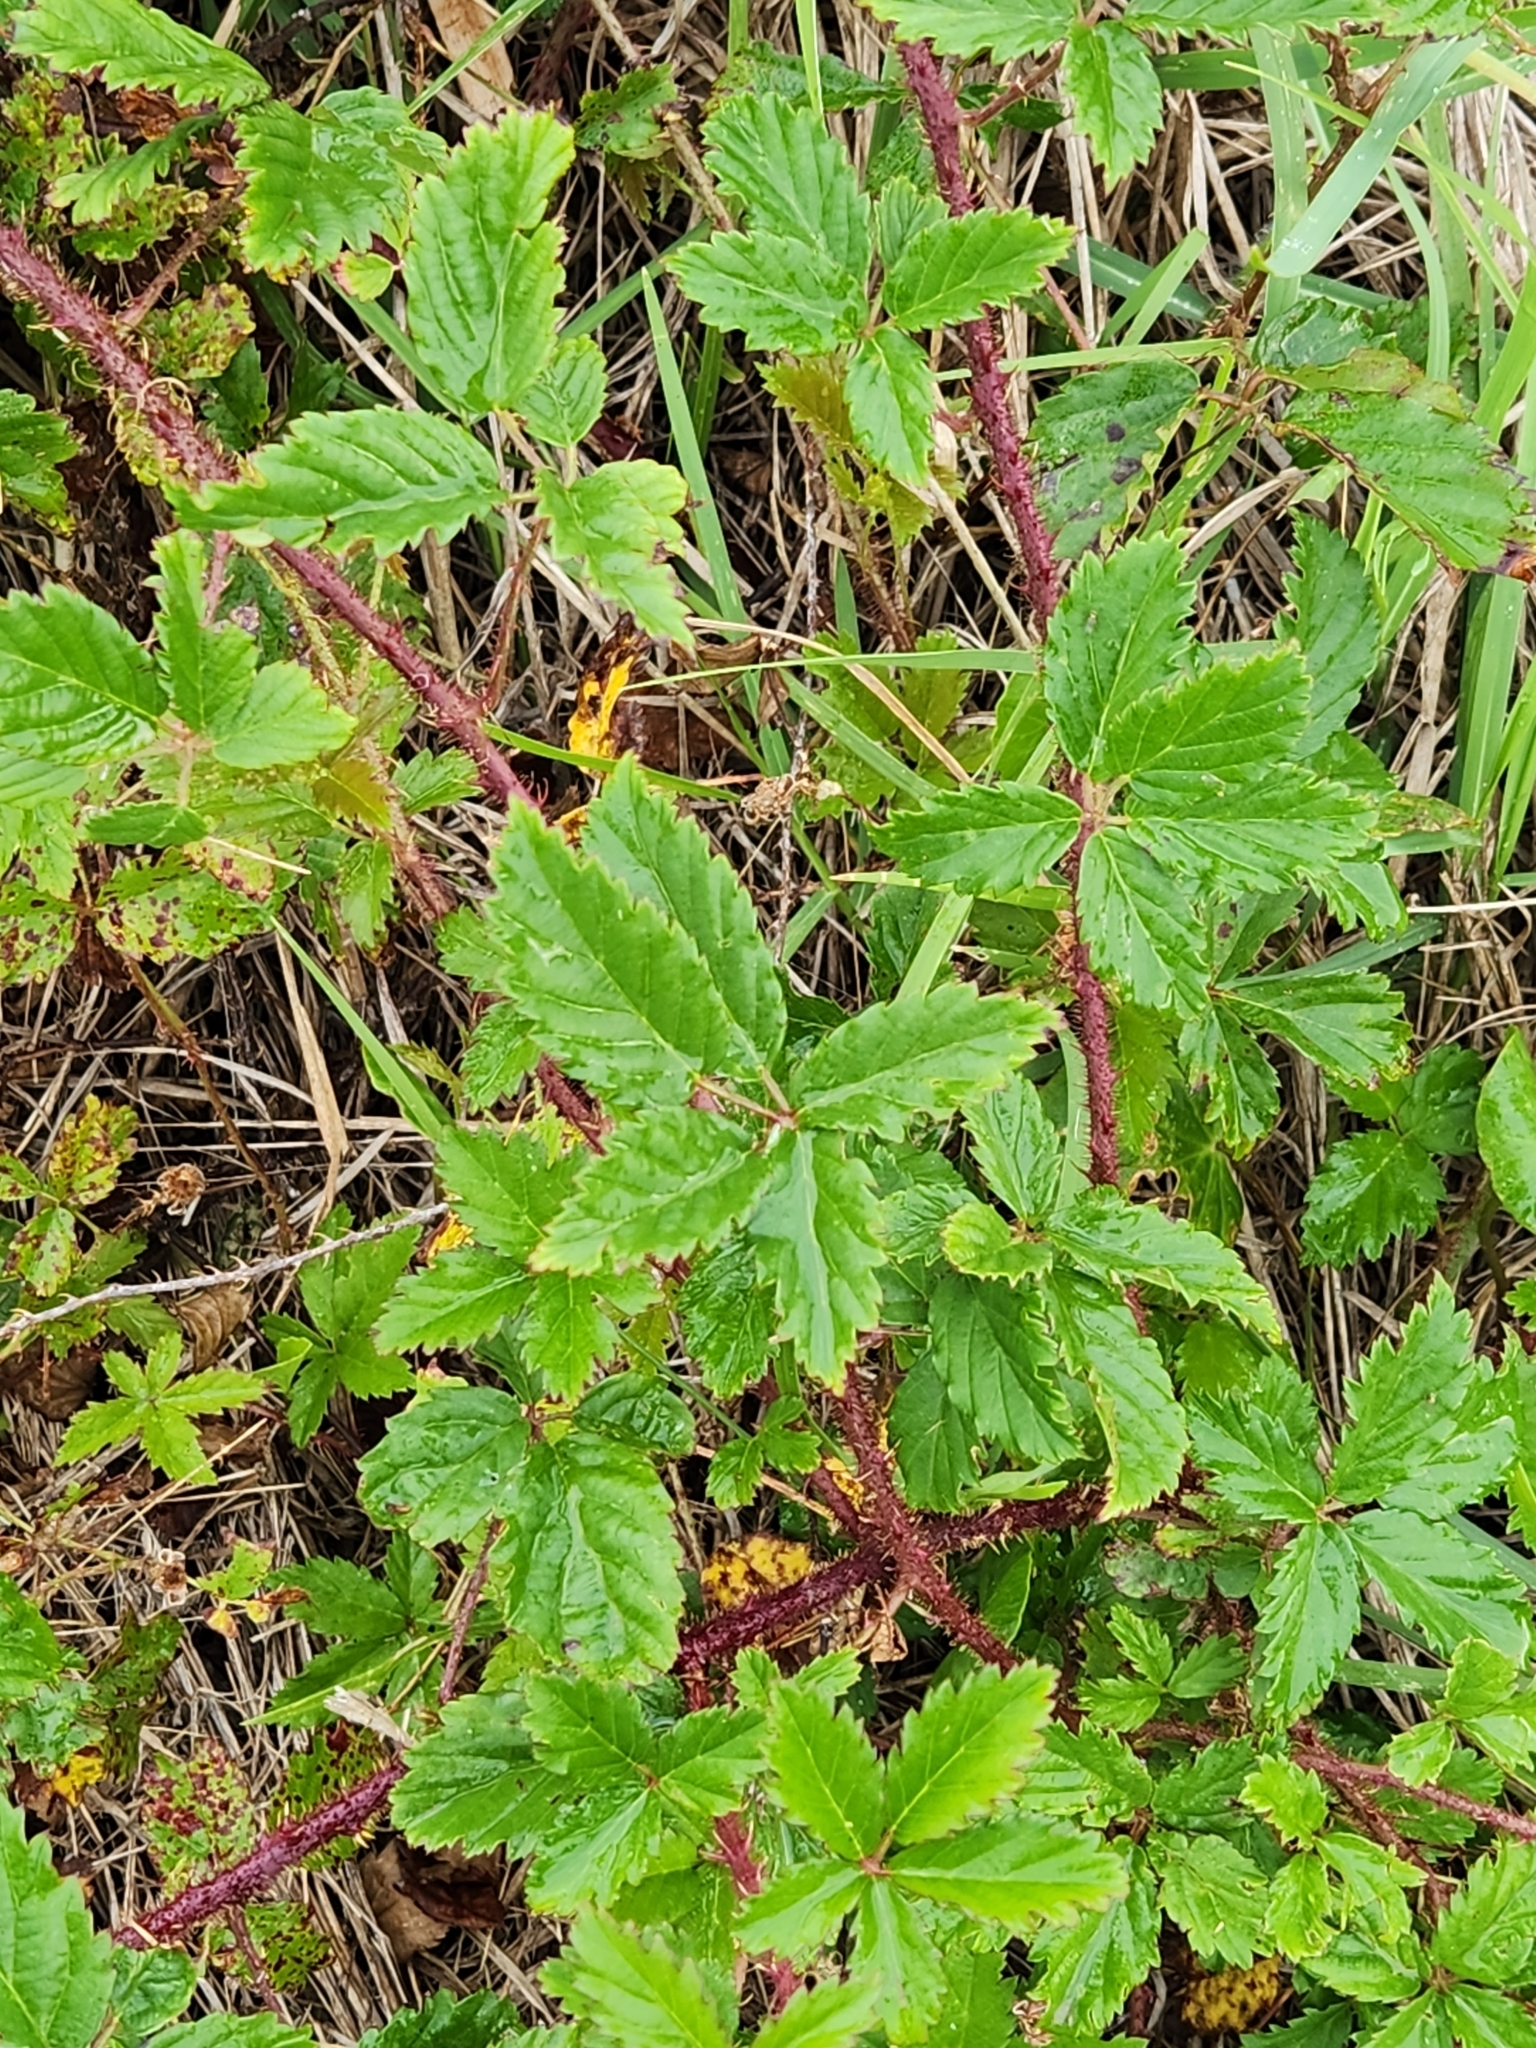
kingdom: Plantae
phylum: Tracheophyta
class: Magnoliopsida
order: Rosales
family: Rosaceae
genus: Rubus
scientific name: Rubus trivialis
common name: Southern dewberry
